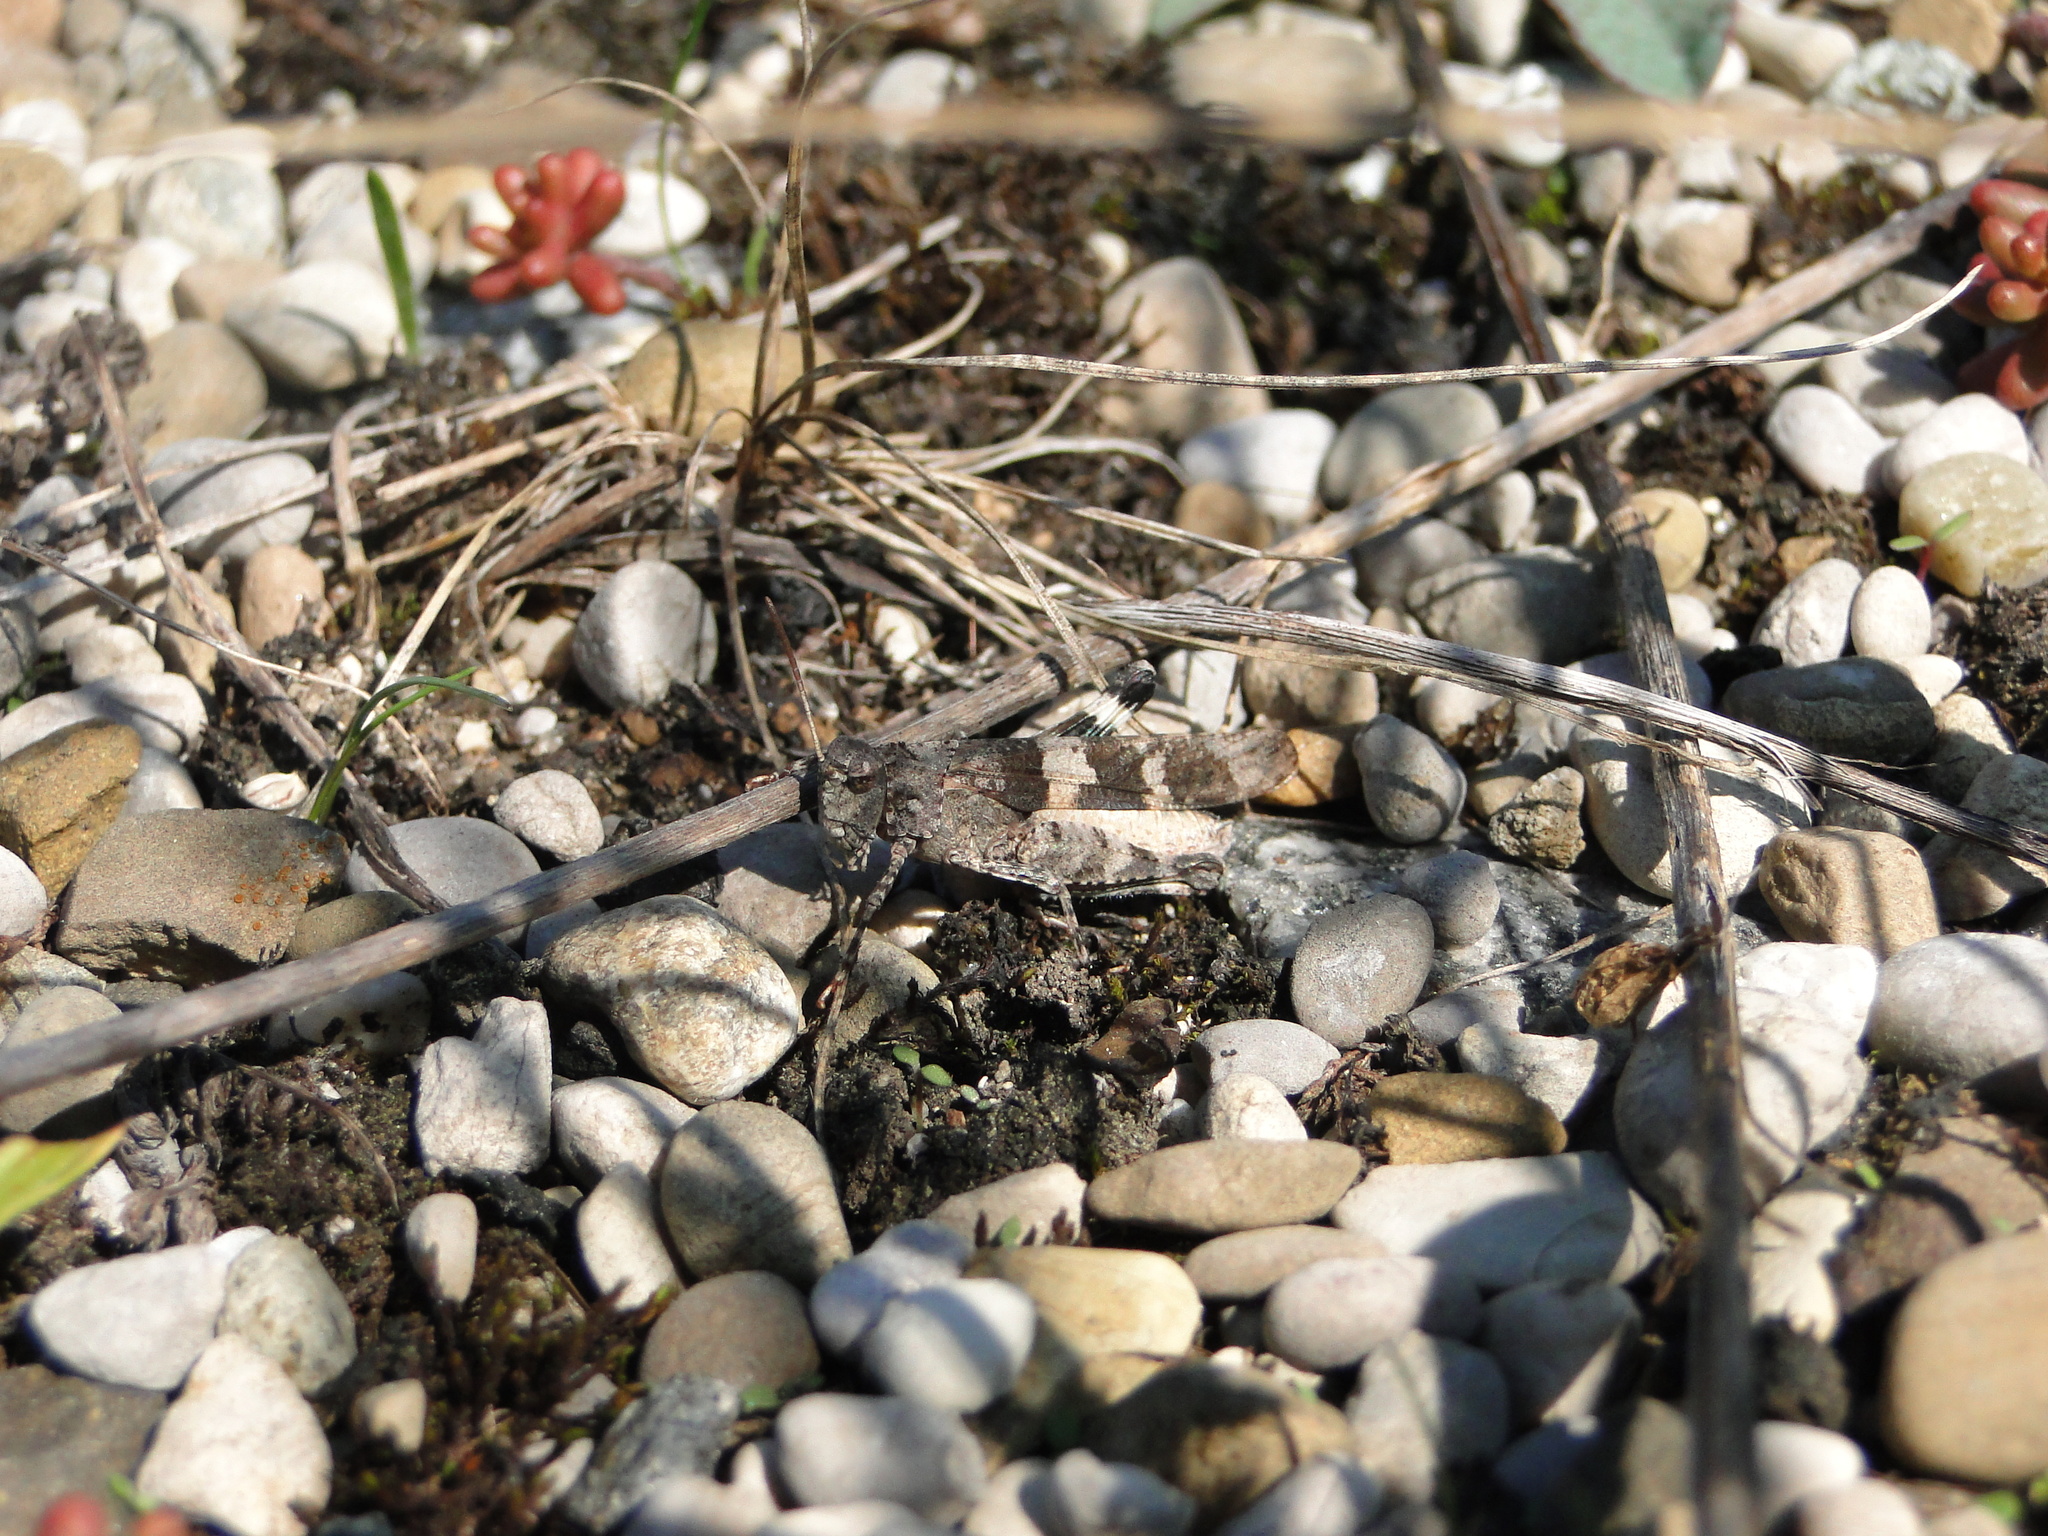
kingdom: Animalia
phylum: Arthropoda
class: Insecta
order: Orthoptera
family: Acrididae
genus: Oedipoda
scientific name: Oedipoda caerulescens
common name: Blue-winged grasshopper
